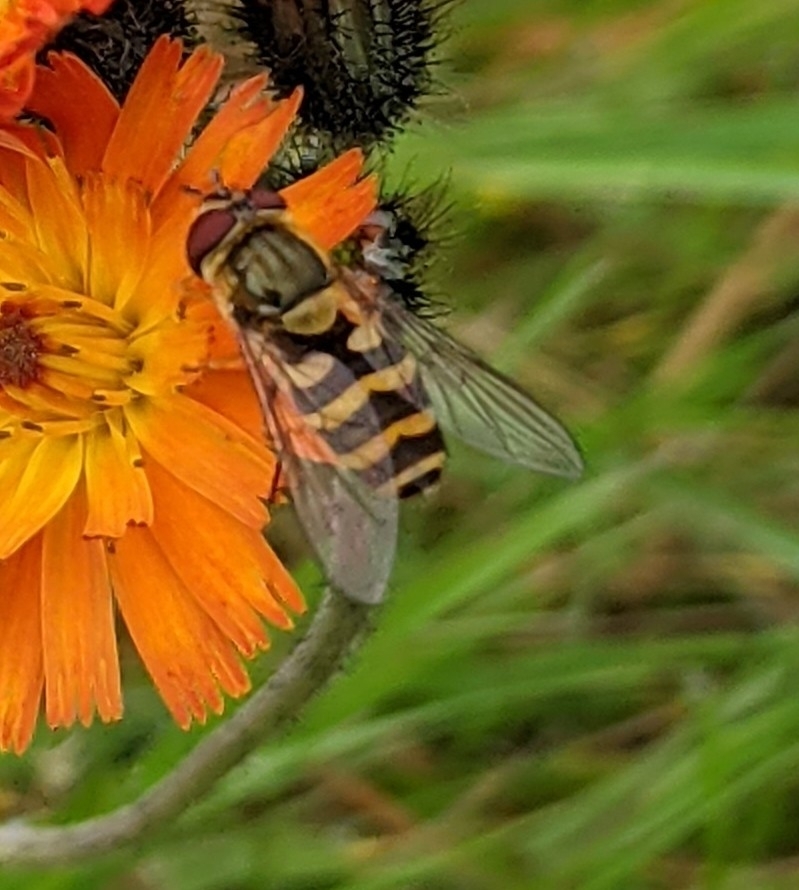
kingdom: Animalia
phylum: Arthropoda
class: Insecta
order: Diptera
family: Syrphidae
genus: Syrphus
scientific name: Syrphus
